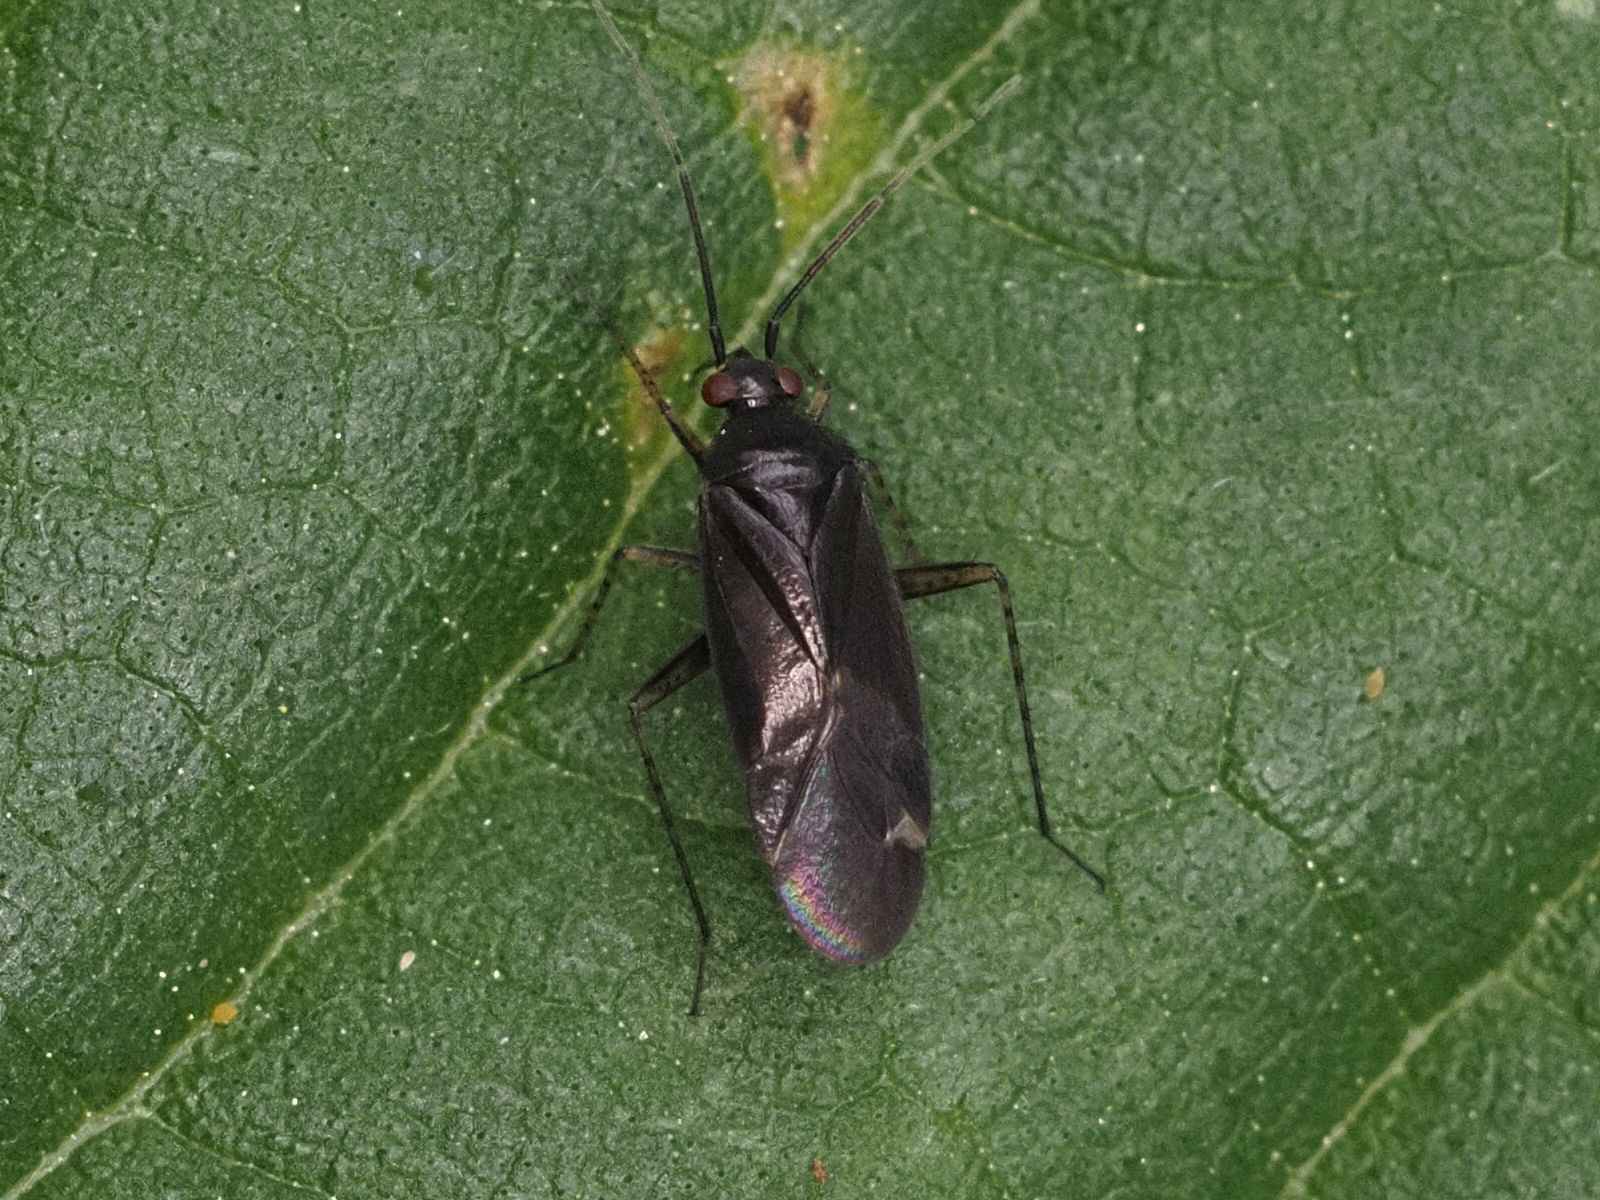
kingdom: Animalia
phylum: Arthropoda
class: Insecta
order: Hemiptera
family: Miridae
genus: Plagiognathus
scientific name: Plagiognathus arbustorum
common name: Plant bug
